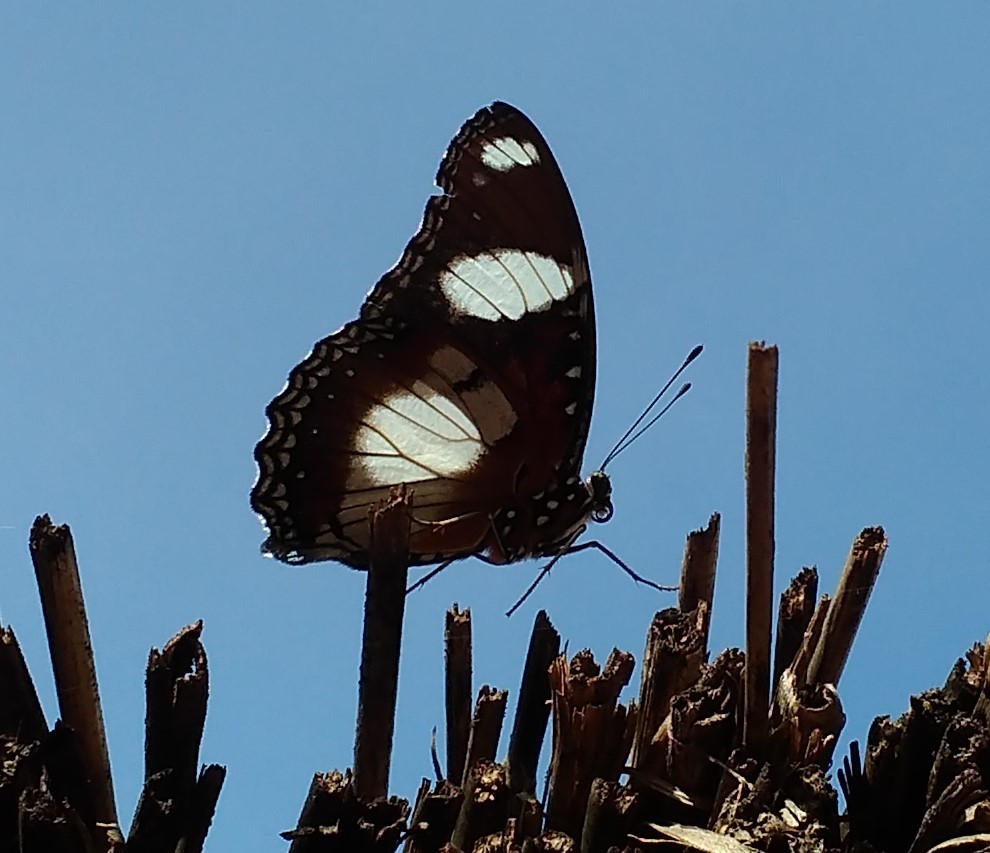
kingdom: Animalia
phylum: Arthropoda
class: Insecta
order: Lepidoptera
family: Nymphalidae
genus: Hypolimnas
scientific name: Hypolimnas misippus
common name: False plain tiger
